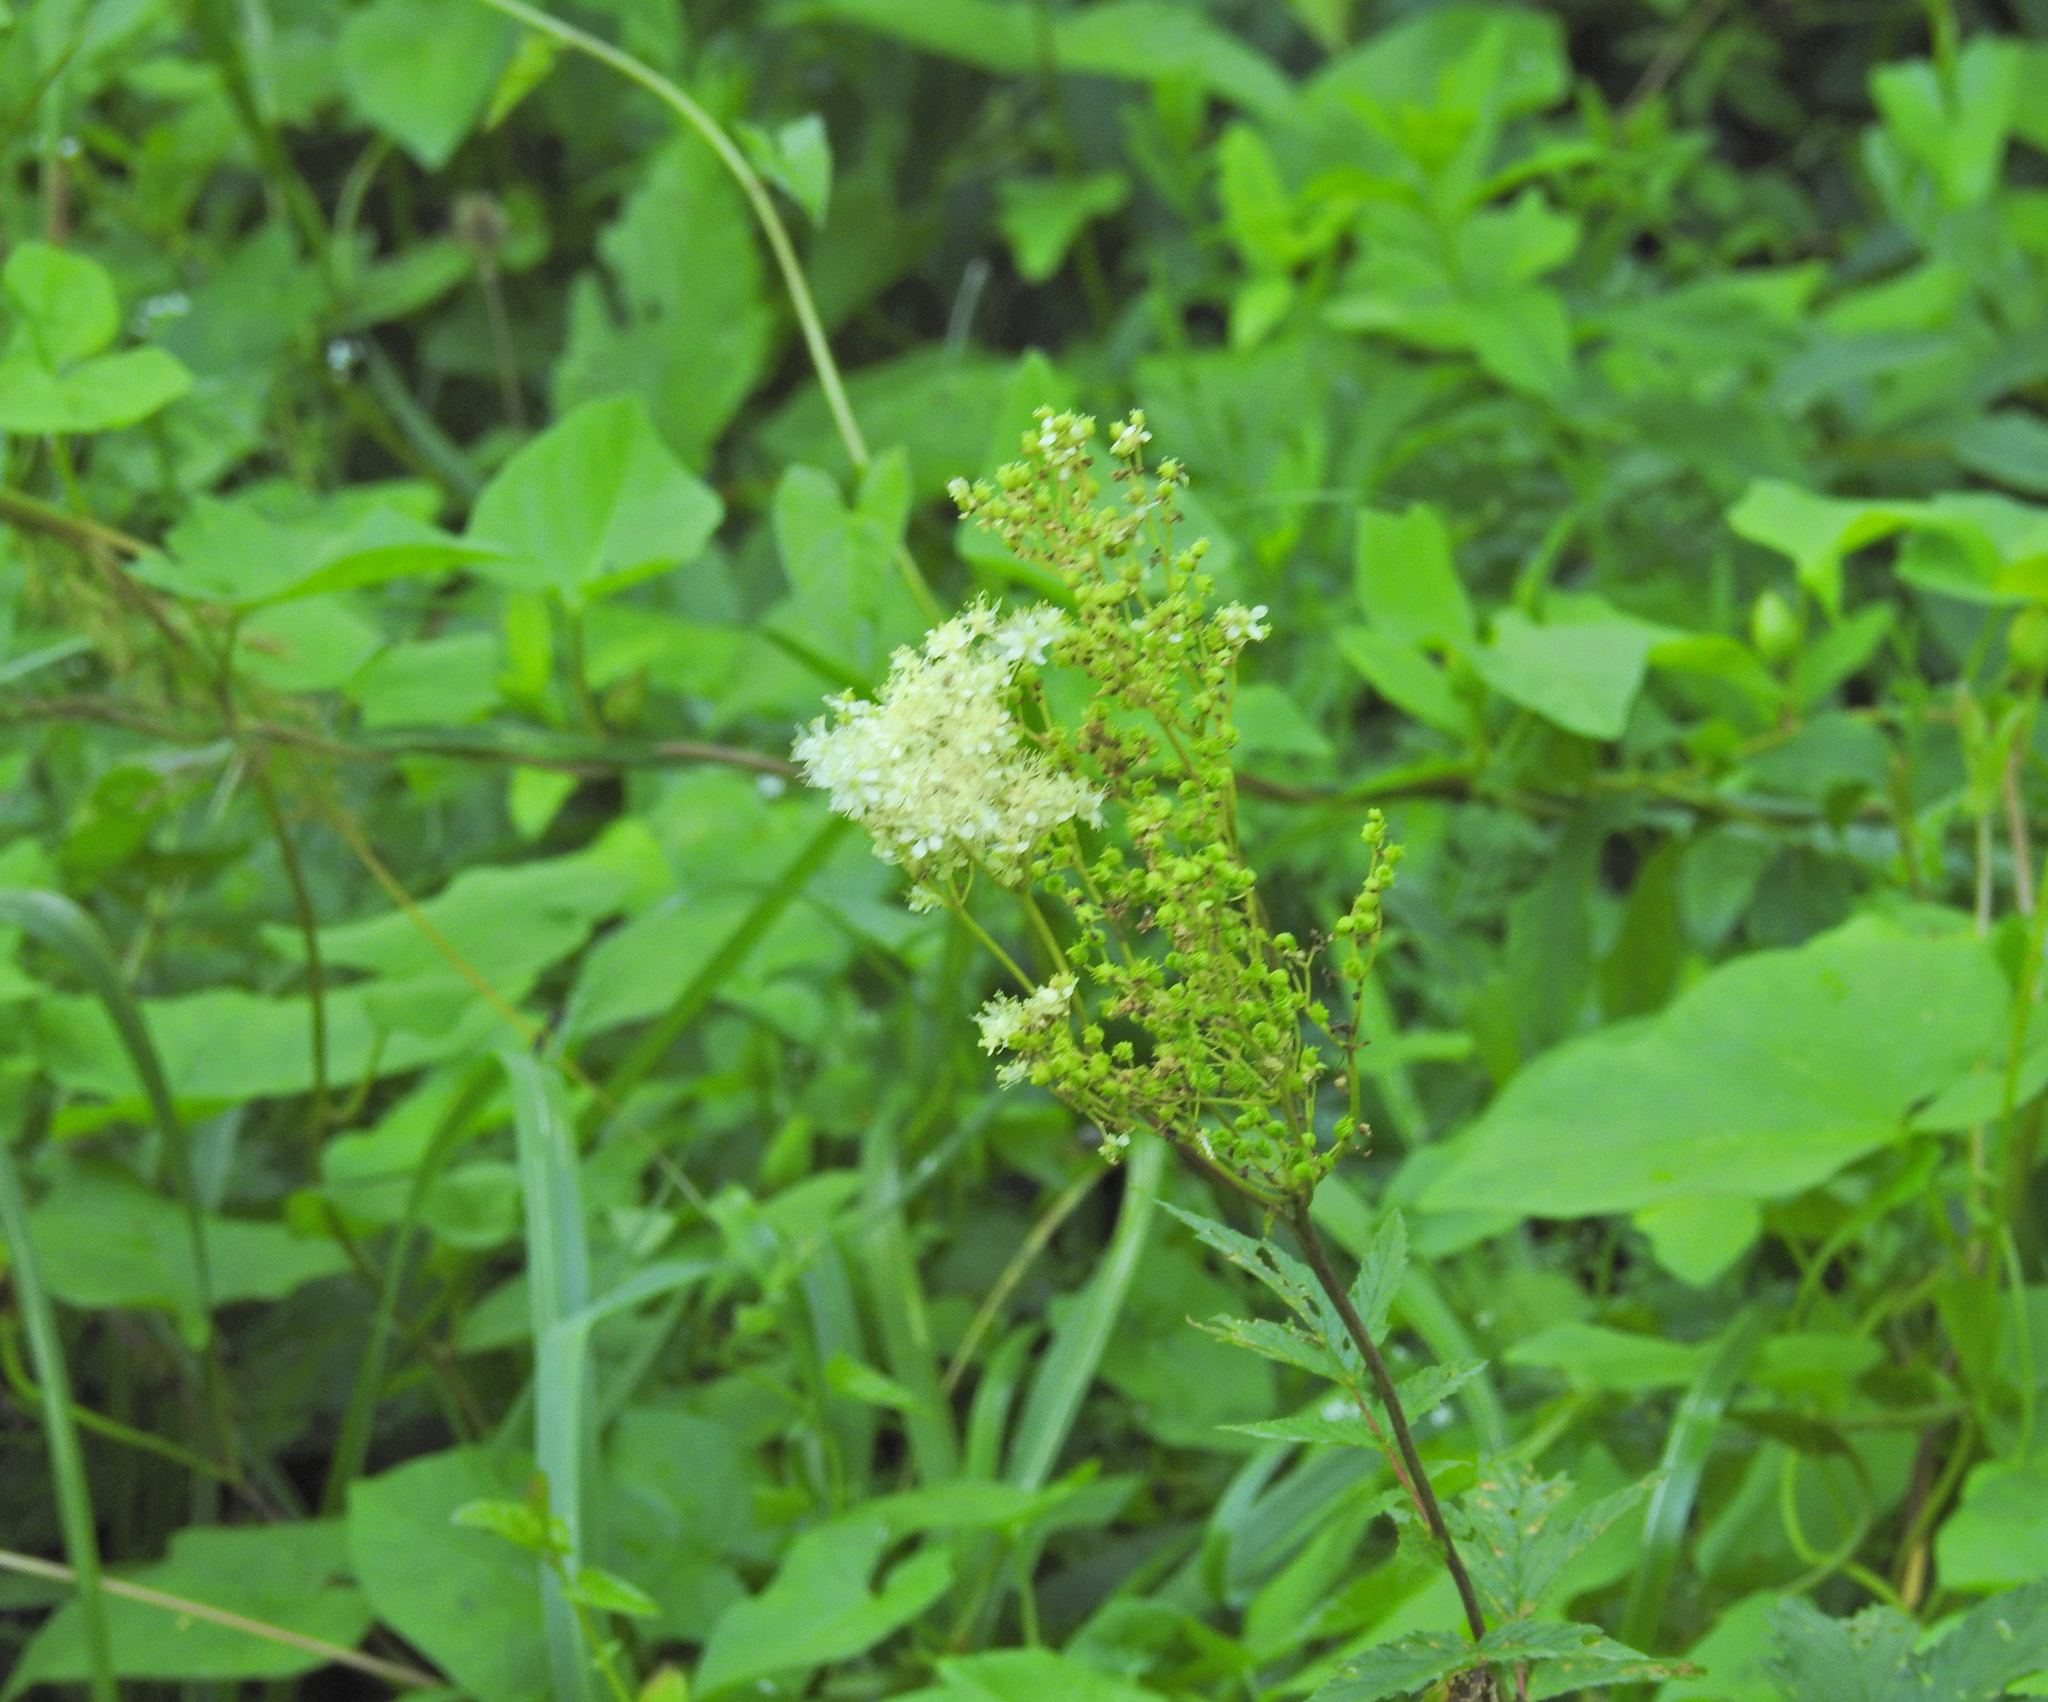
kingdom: Plantae
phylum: Tracheophyta
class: Magnoliopsida
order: Rosales
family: Rosaceae
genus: Filipendula
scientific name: Filipendula ulmaria
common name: Meadowsweet
